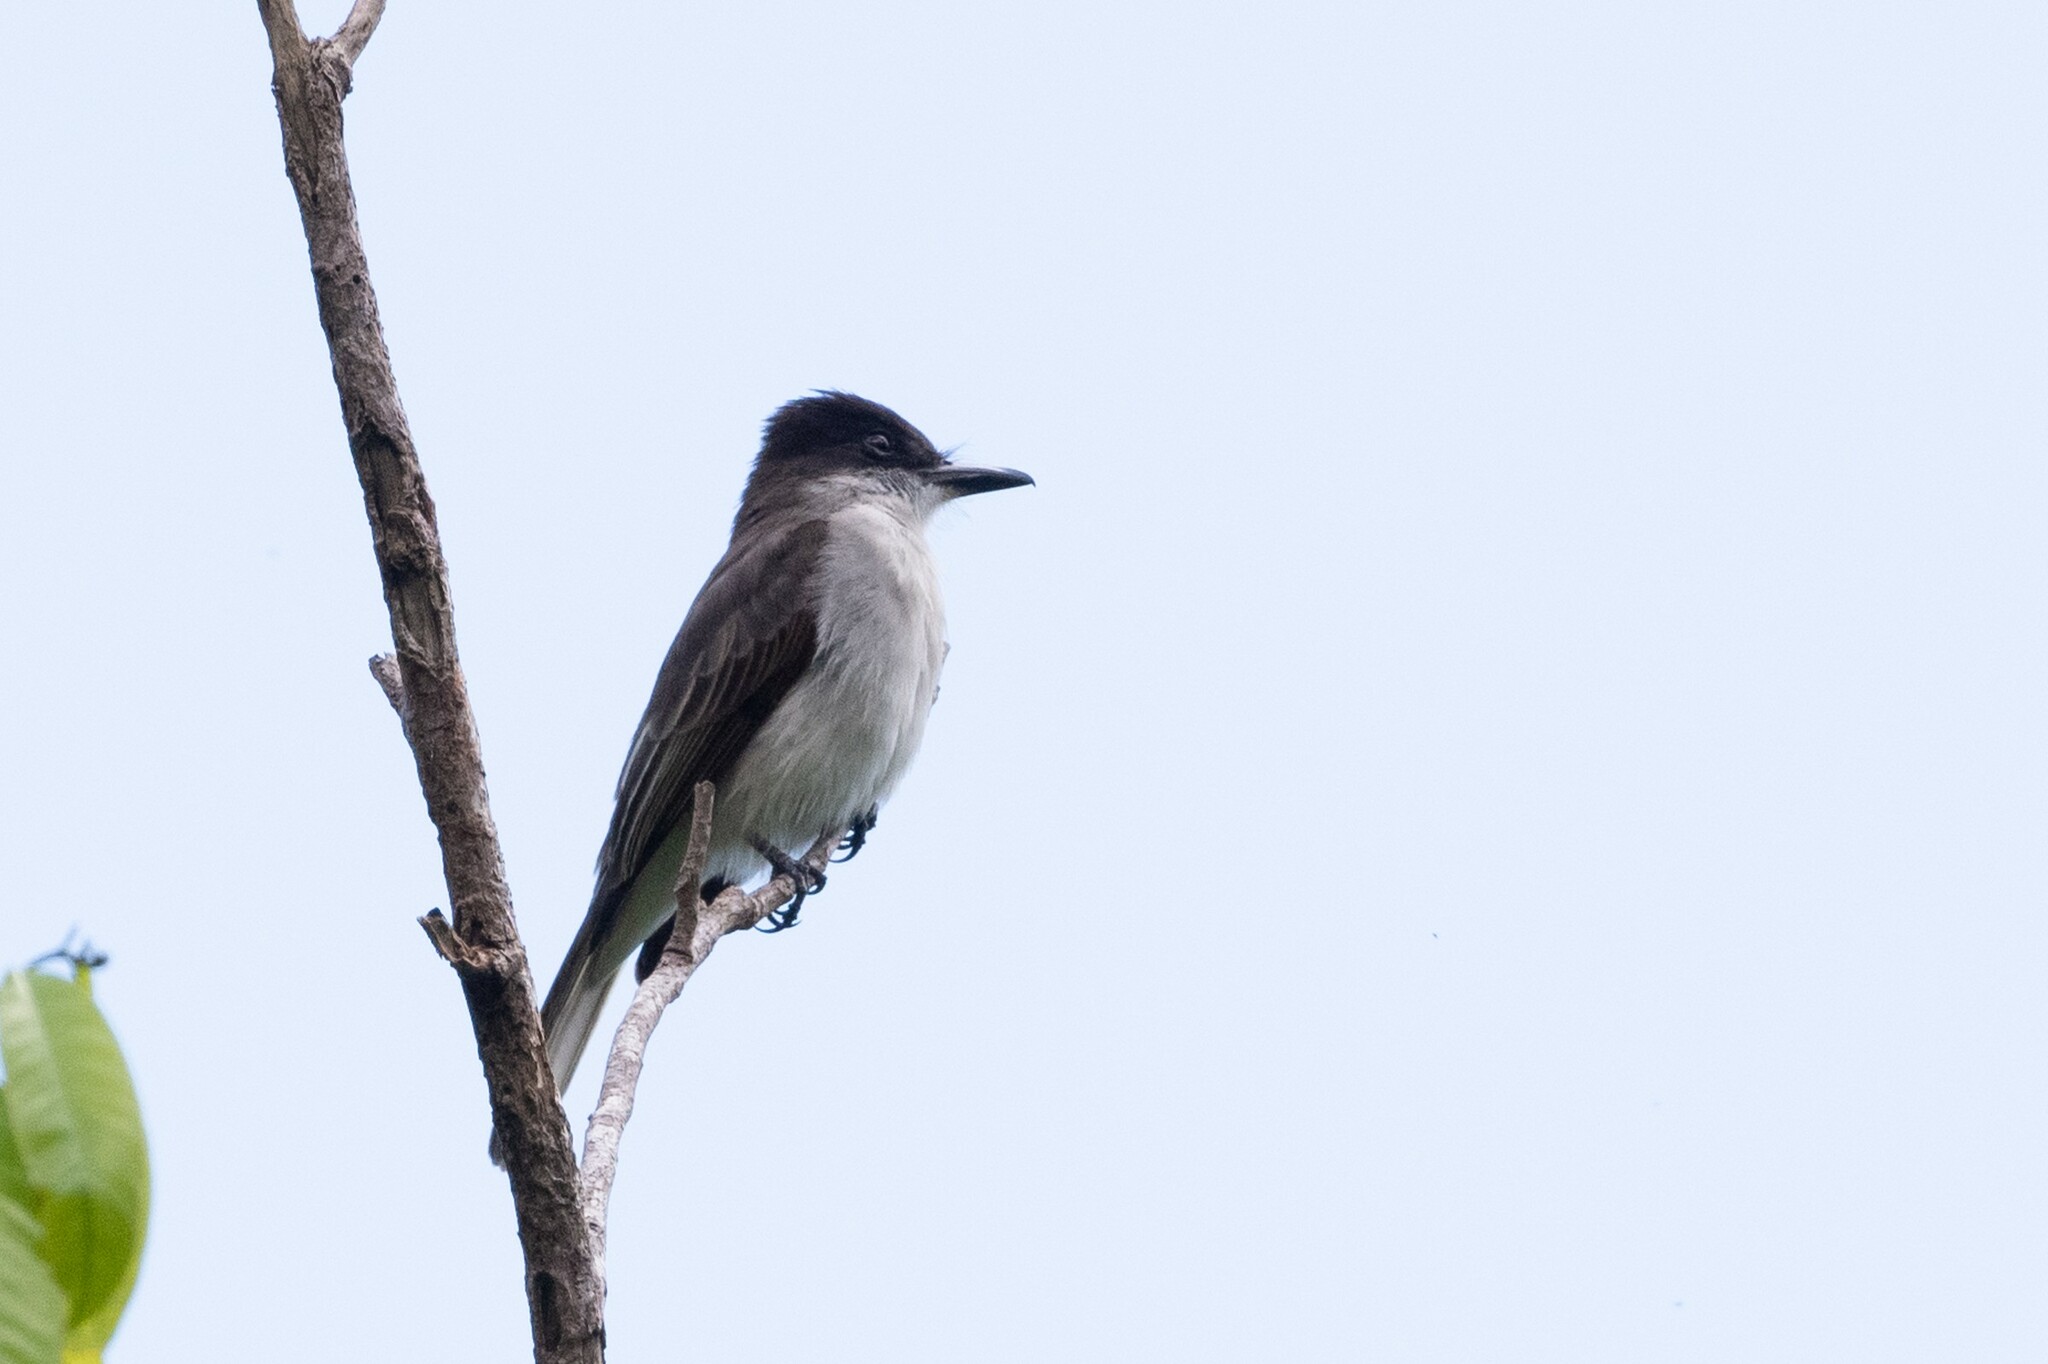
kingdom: Animalia
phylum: Chordata
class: Aves
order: Passeriformes
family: Tyrannidae
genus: Tyrannus
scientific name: Tyrannus caudifasciatus
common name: Loggerhead kingbird
